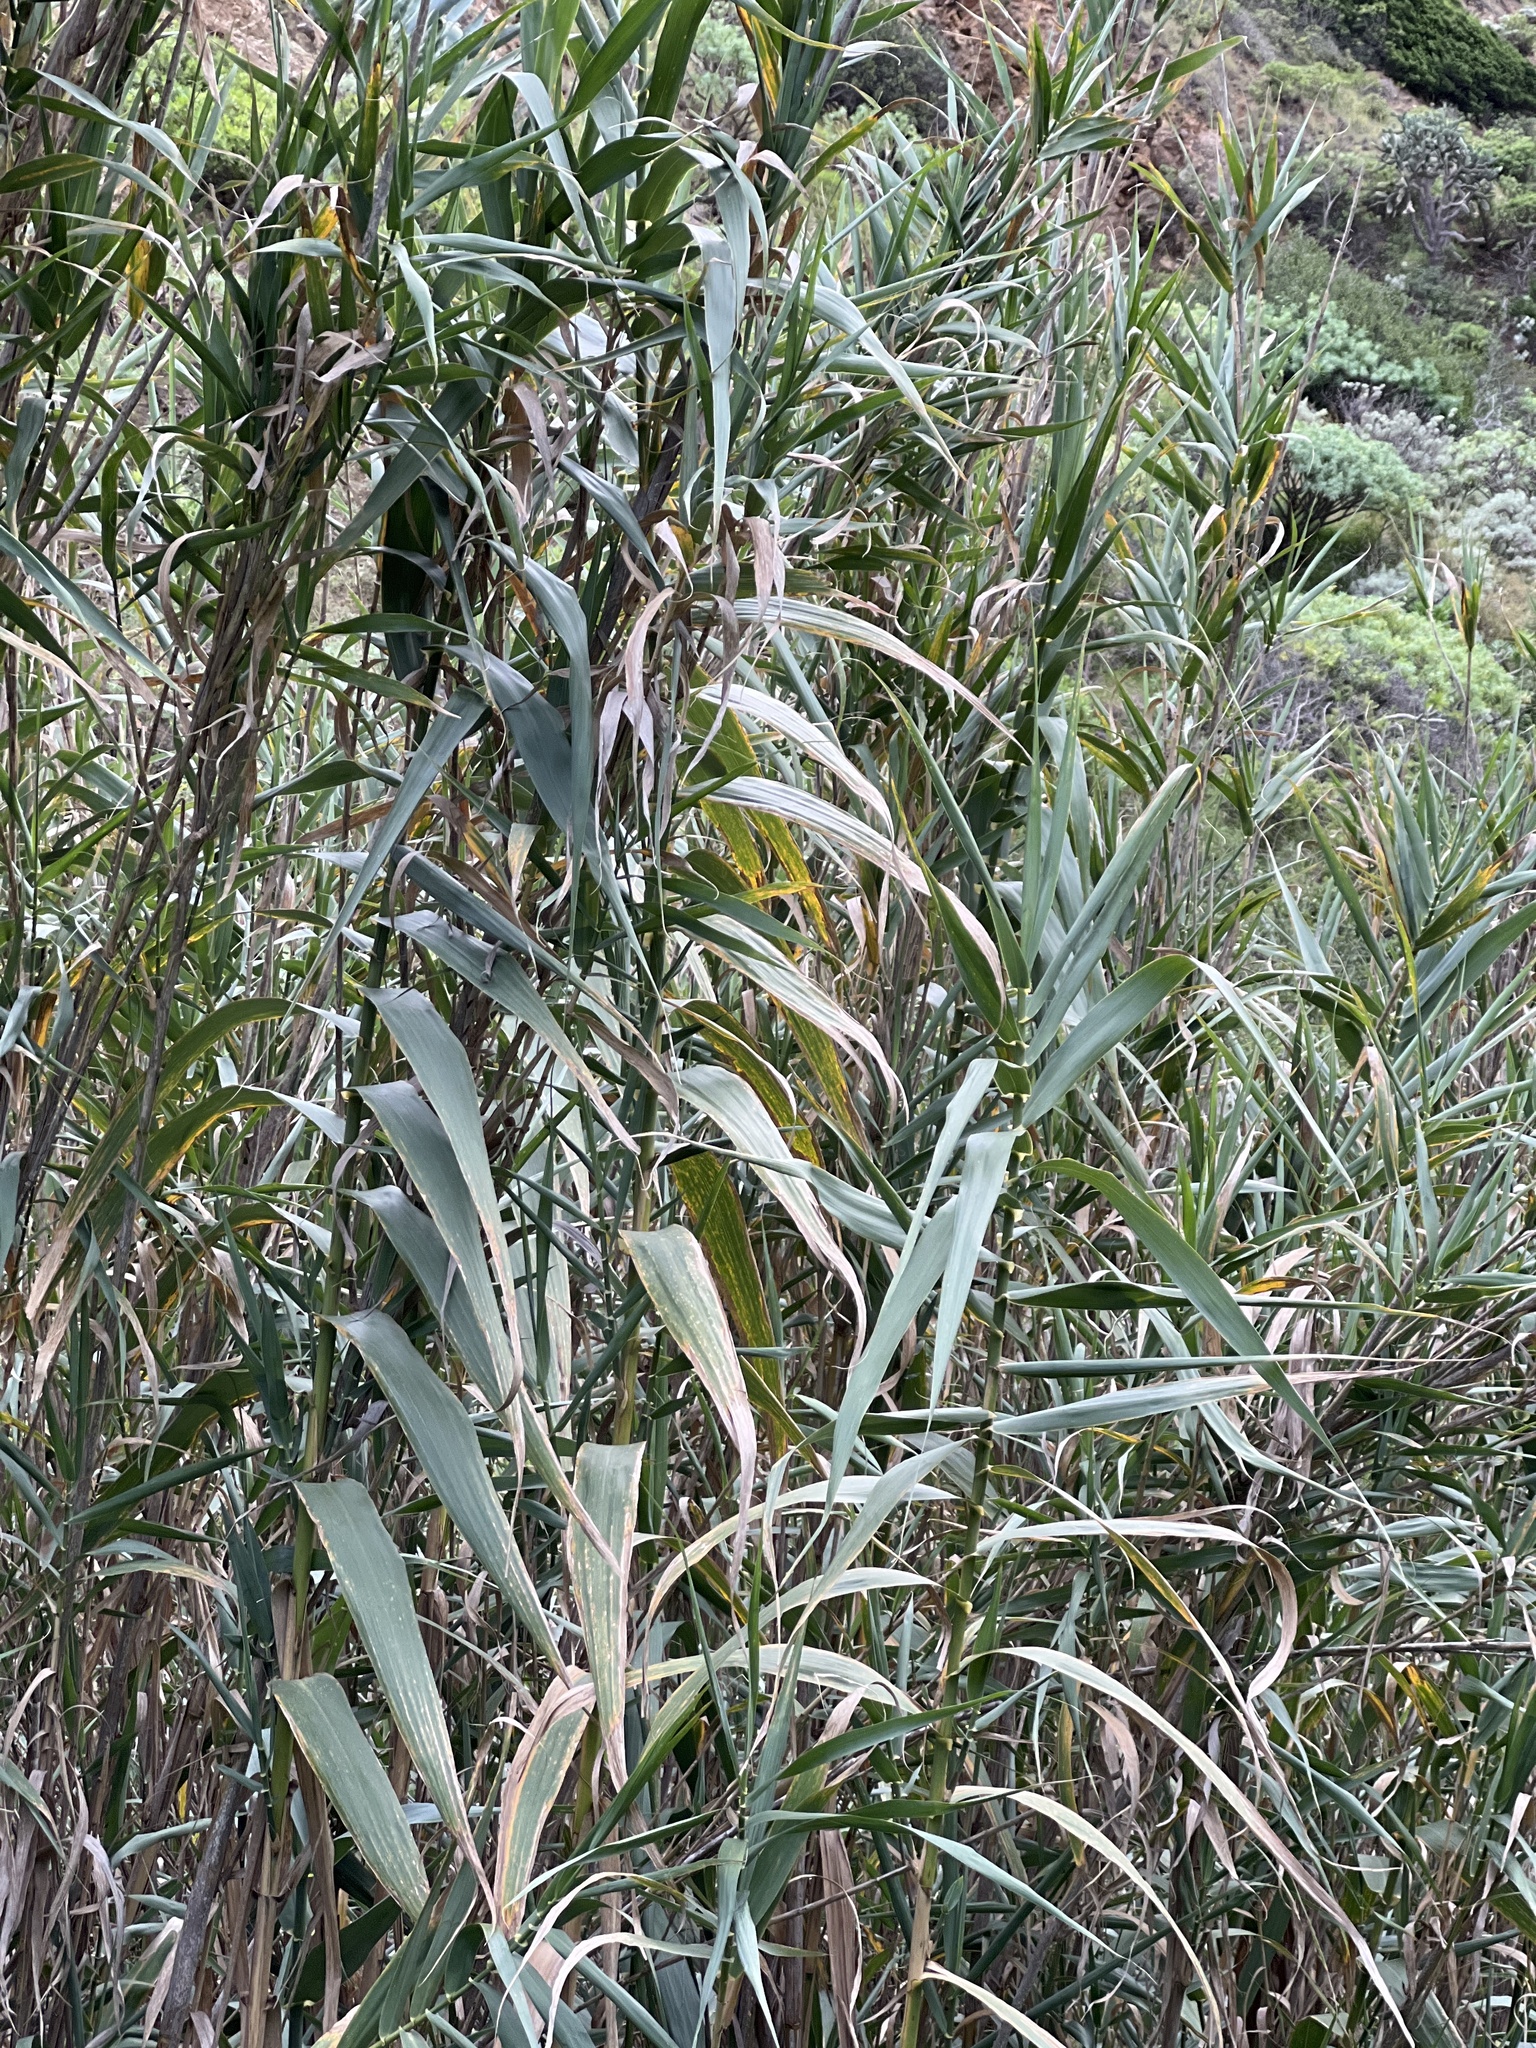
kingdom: Plantae
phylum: Tracheophyta
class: Liliopsida
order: Poales
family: Poaceae
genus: Arundo
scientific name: Arundo donax
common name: Giant reed
